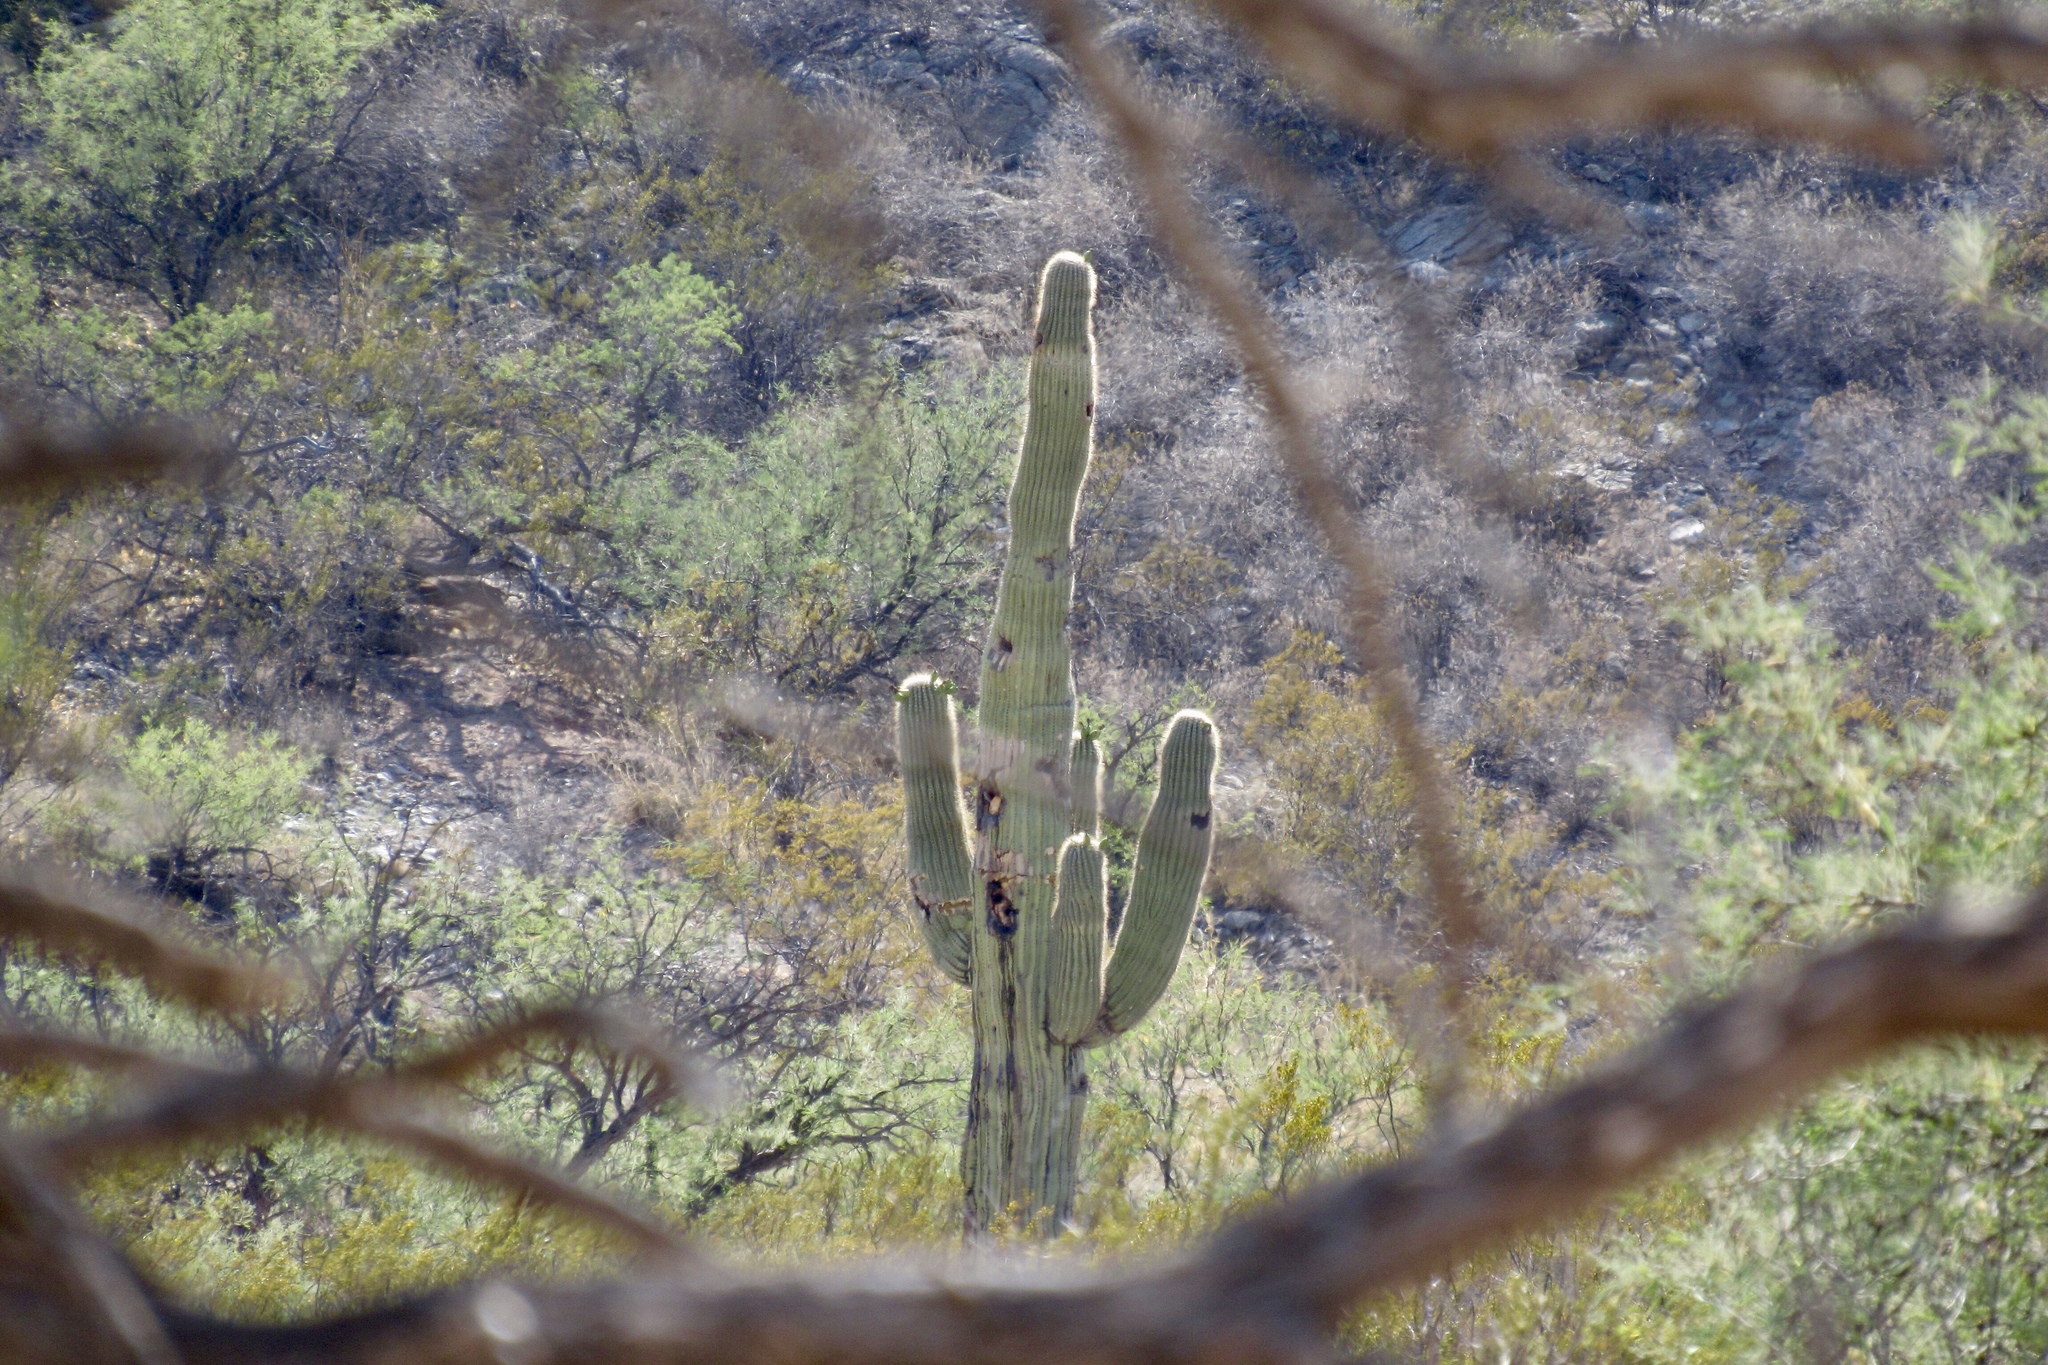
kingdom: Plantae
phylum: Tracheophyta
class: Magnoliopsida
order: Caryophyllales
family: Cactaceae
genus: Carnegiea
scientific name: Carnegiea gigantea
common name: Saguaro
